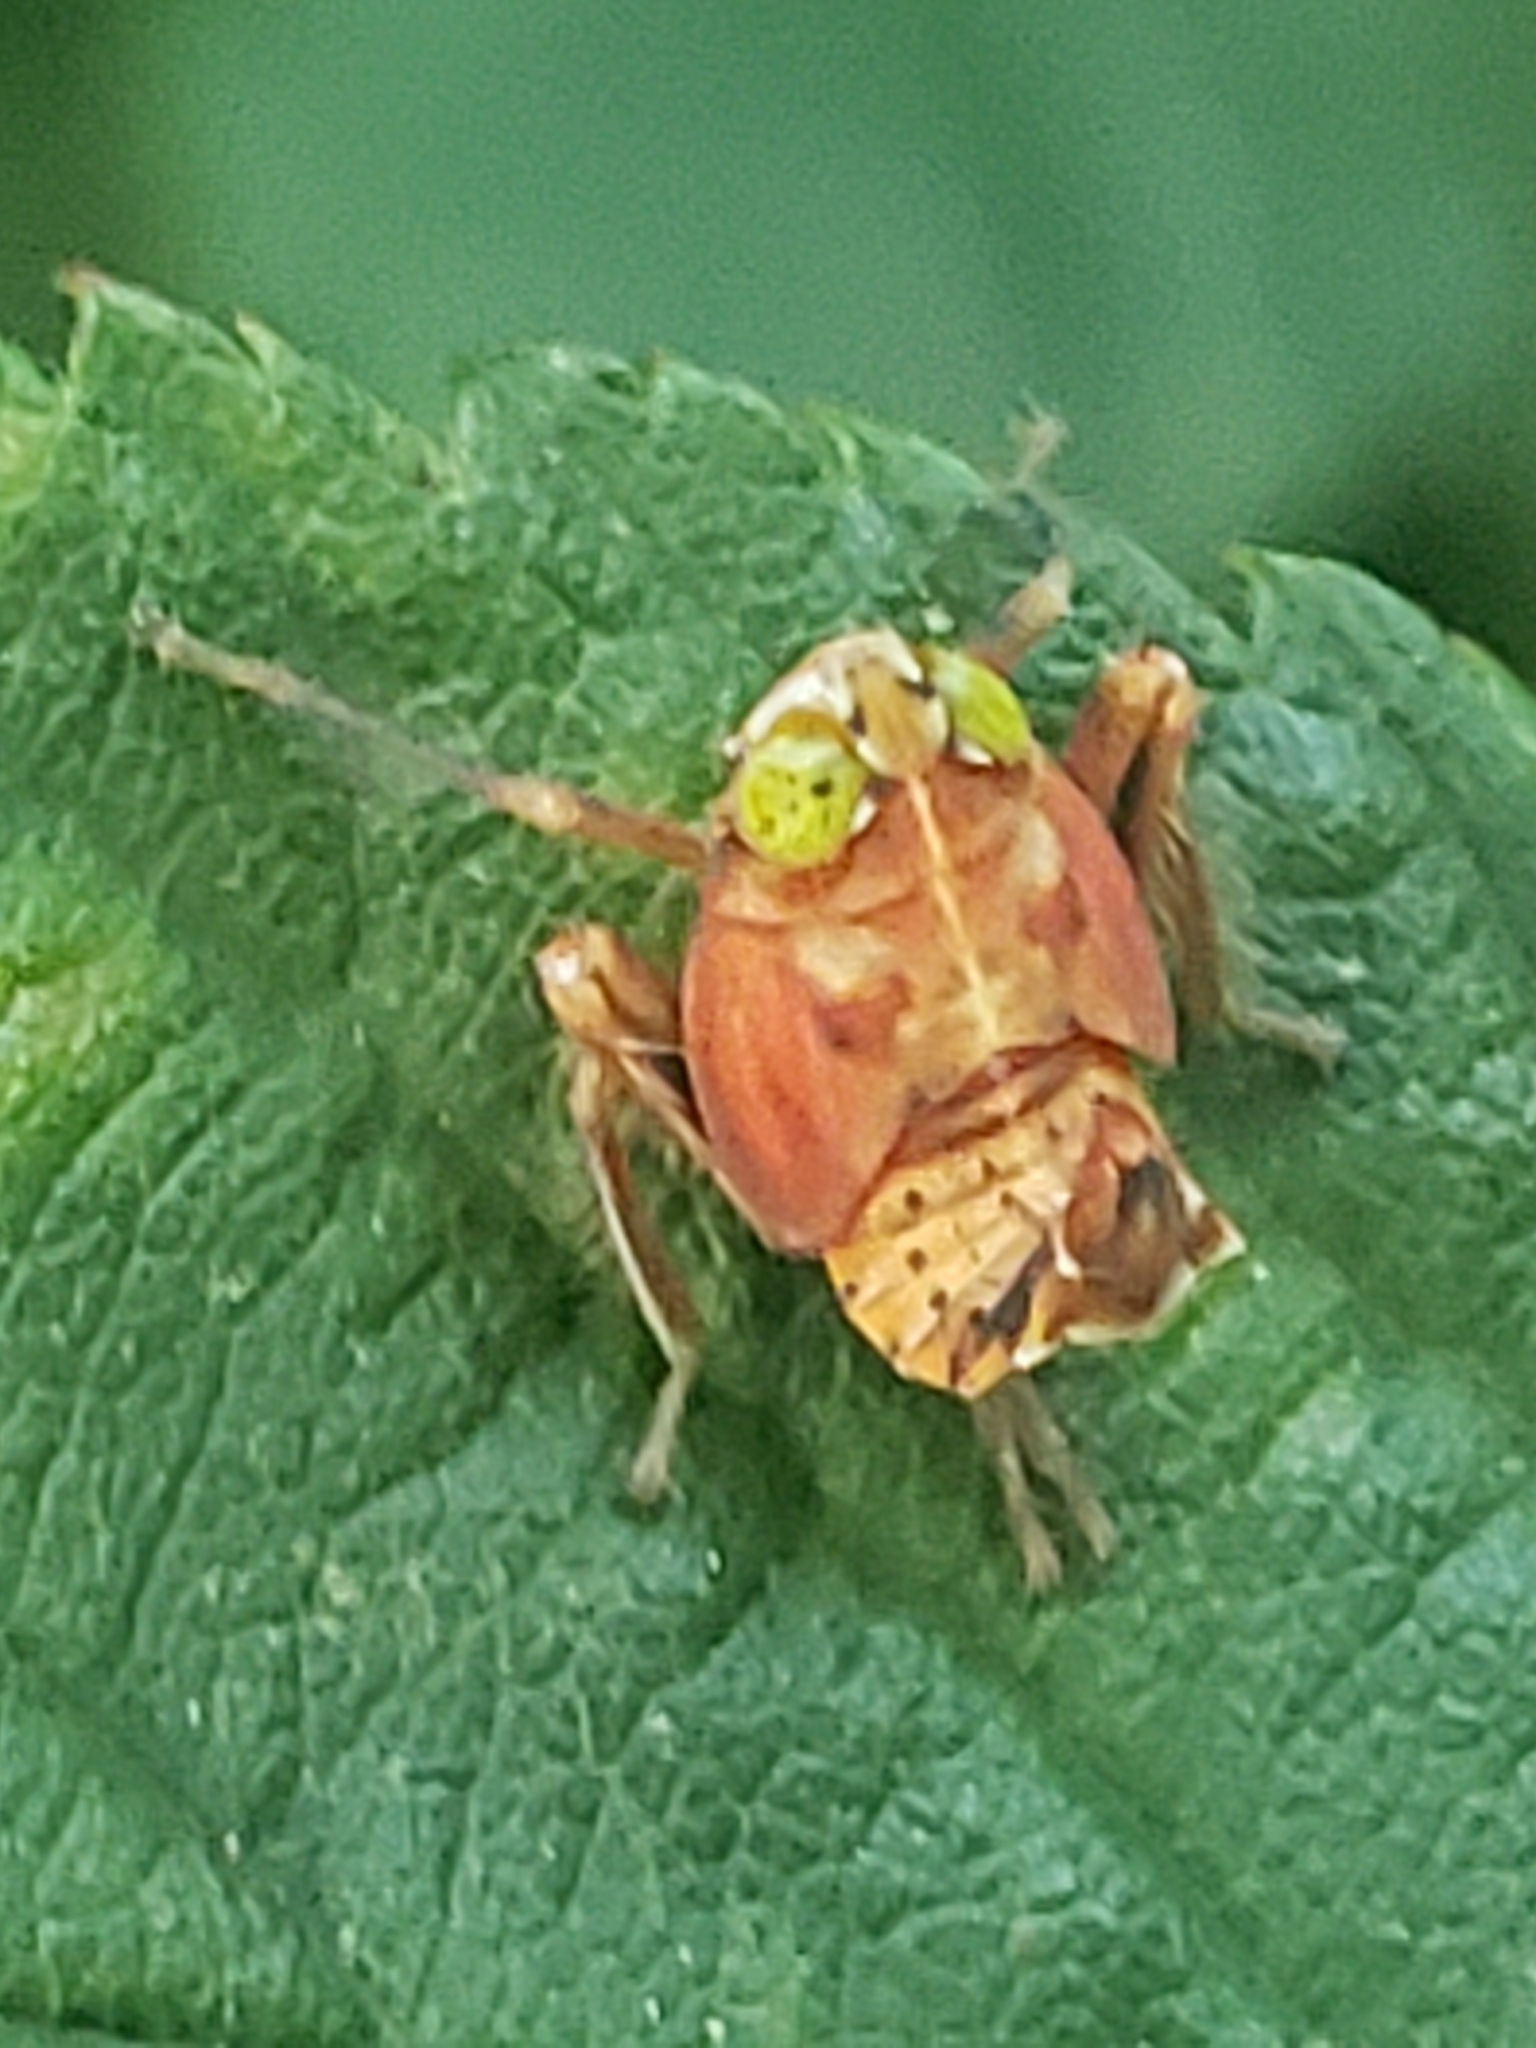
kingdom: Animalia
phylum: Arthropoda
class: Insecta
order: Hemiptera
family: Cicadellidae
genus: Jikradia
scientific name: Jikradia olitoria
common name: Coppery leafhopper
